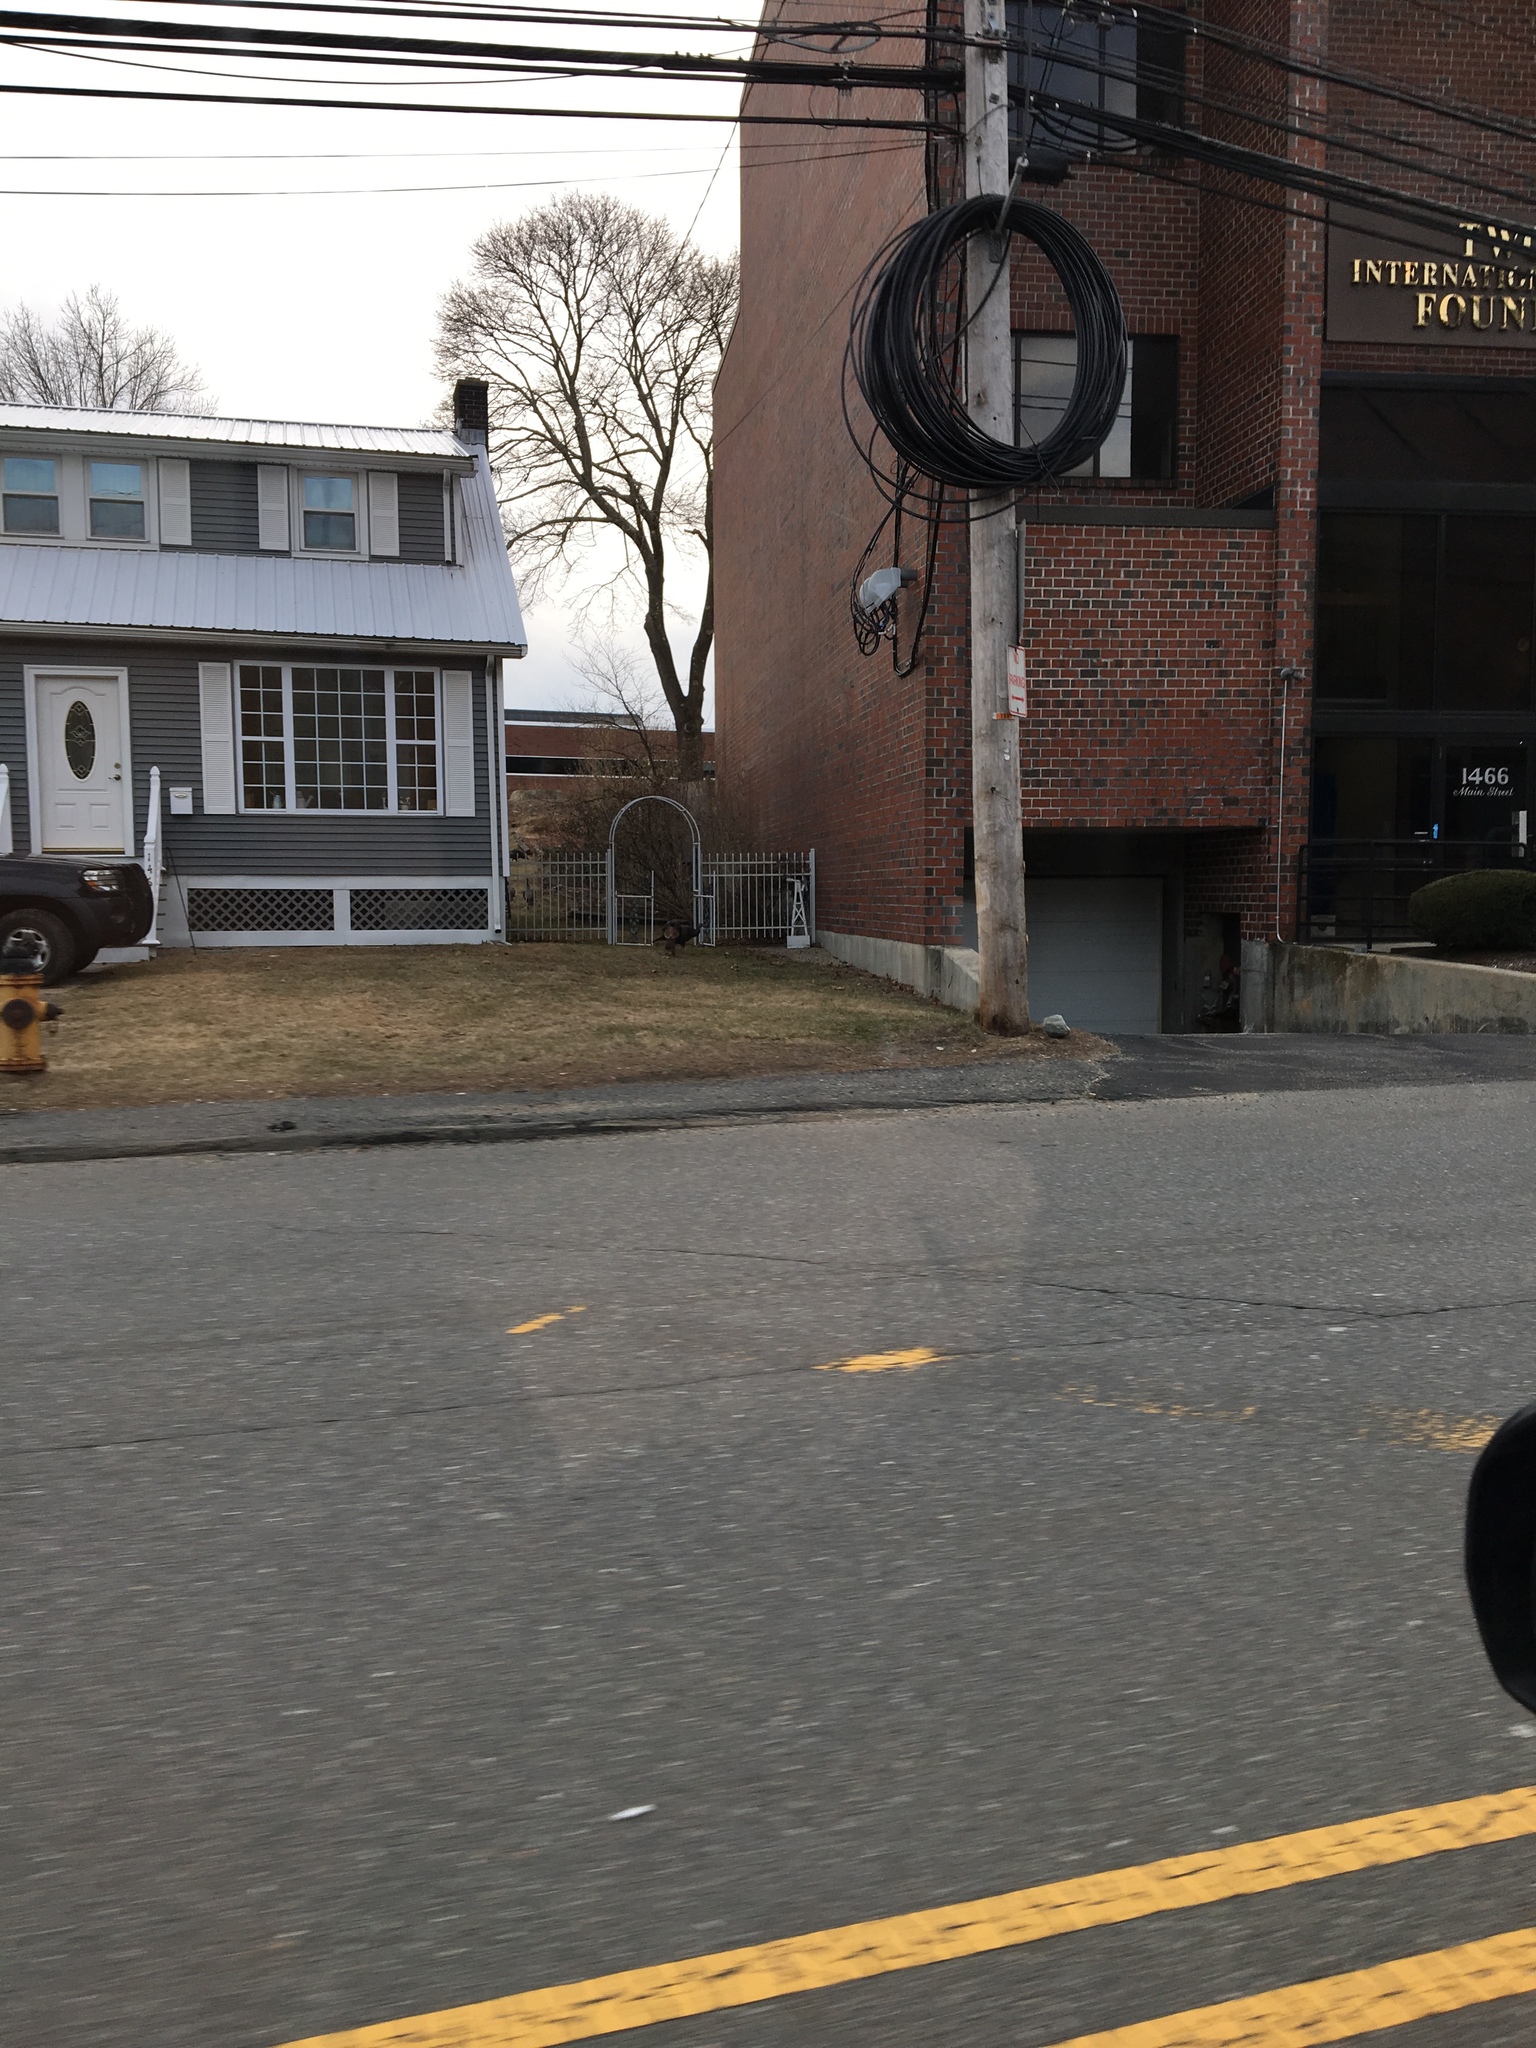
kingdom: Animalia
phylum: Chordata
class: Aves
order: Galliformes
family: Phasianidae
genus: Meleagris
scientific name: Meleagris gallopavo
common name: Wild turkey
